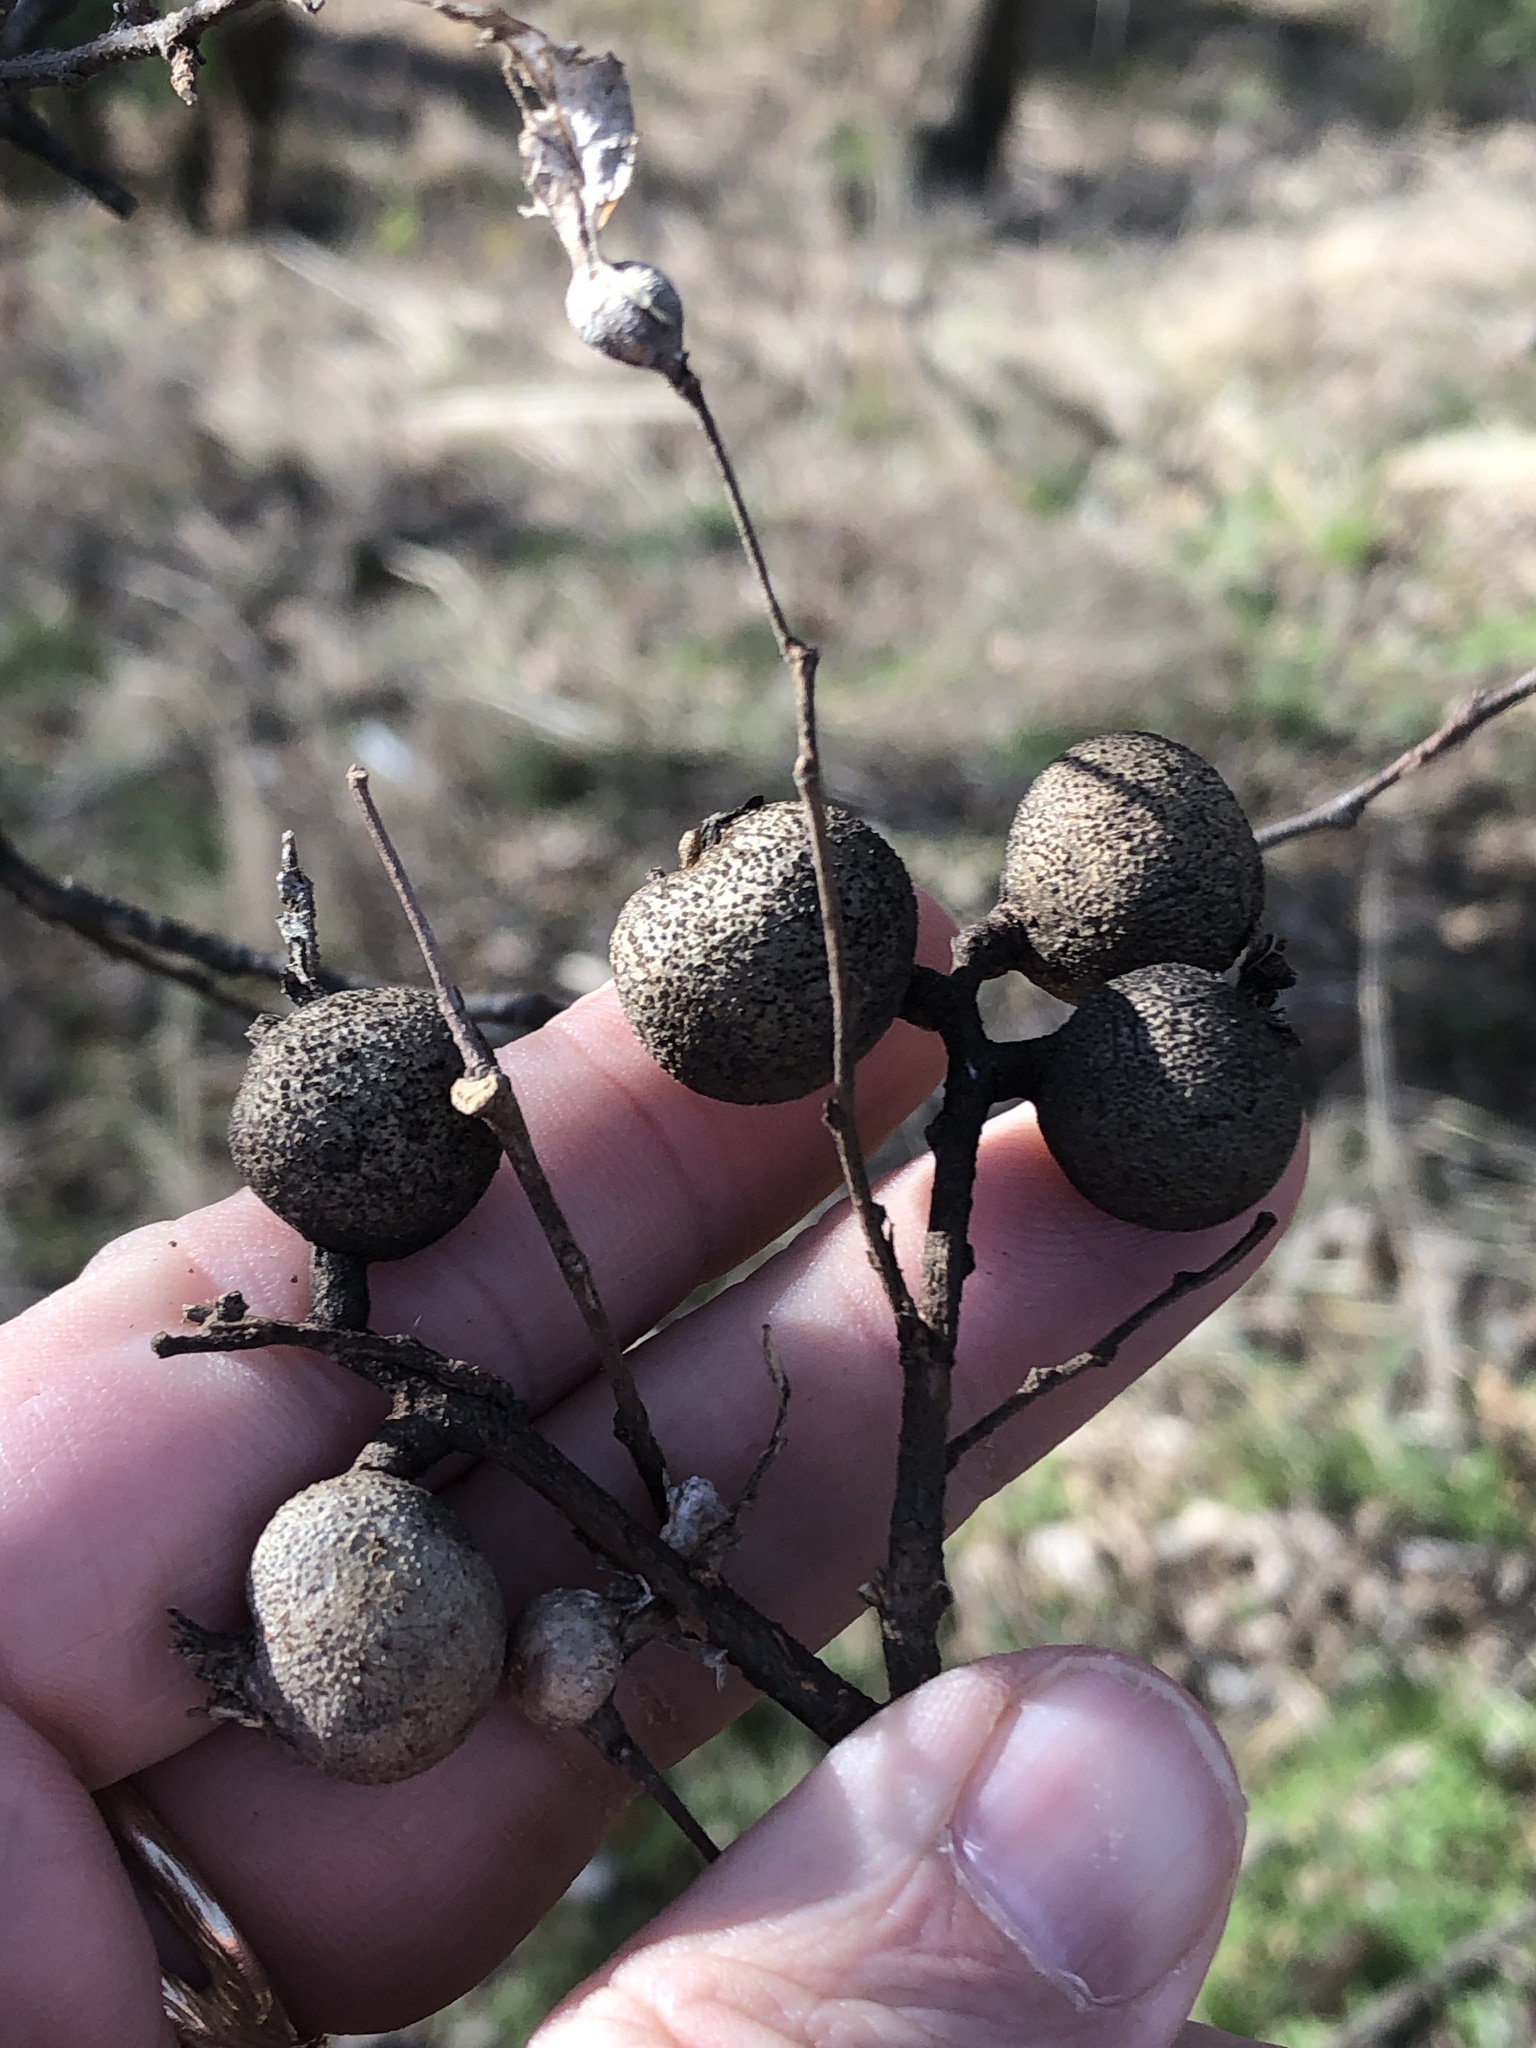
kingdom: Animalia
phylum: Arthropoda
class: Insecta
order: Hemiptera
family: Aphalaridae
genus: Pachypsylla
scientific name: Pachypsylla venusta
